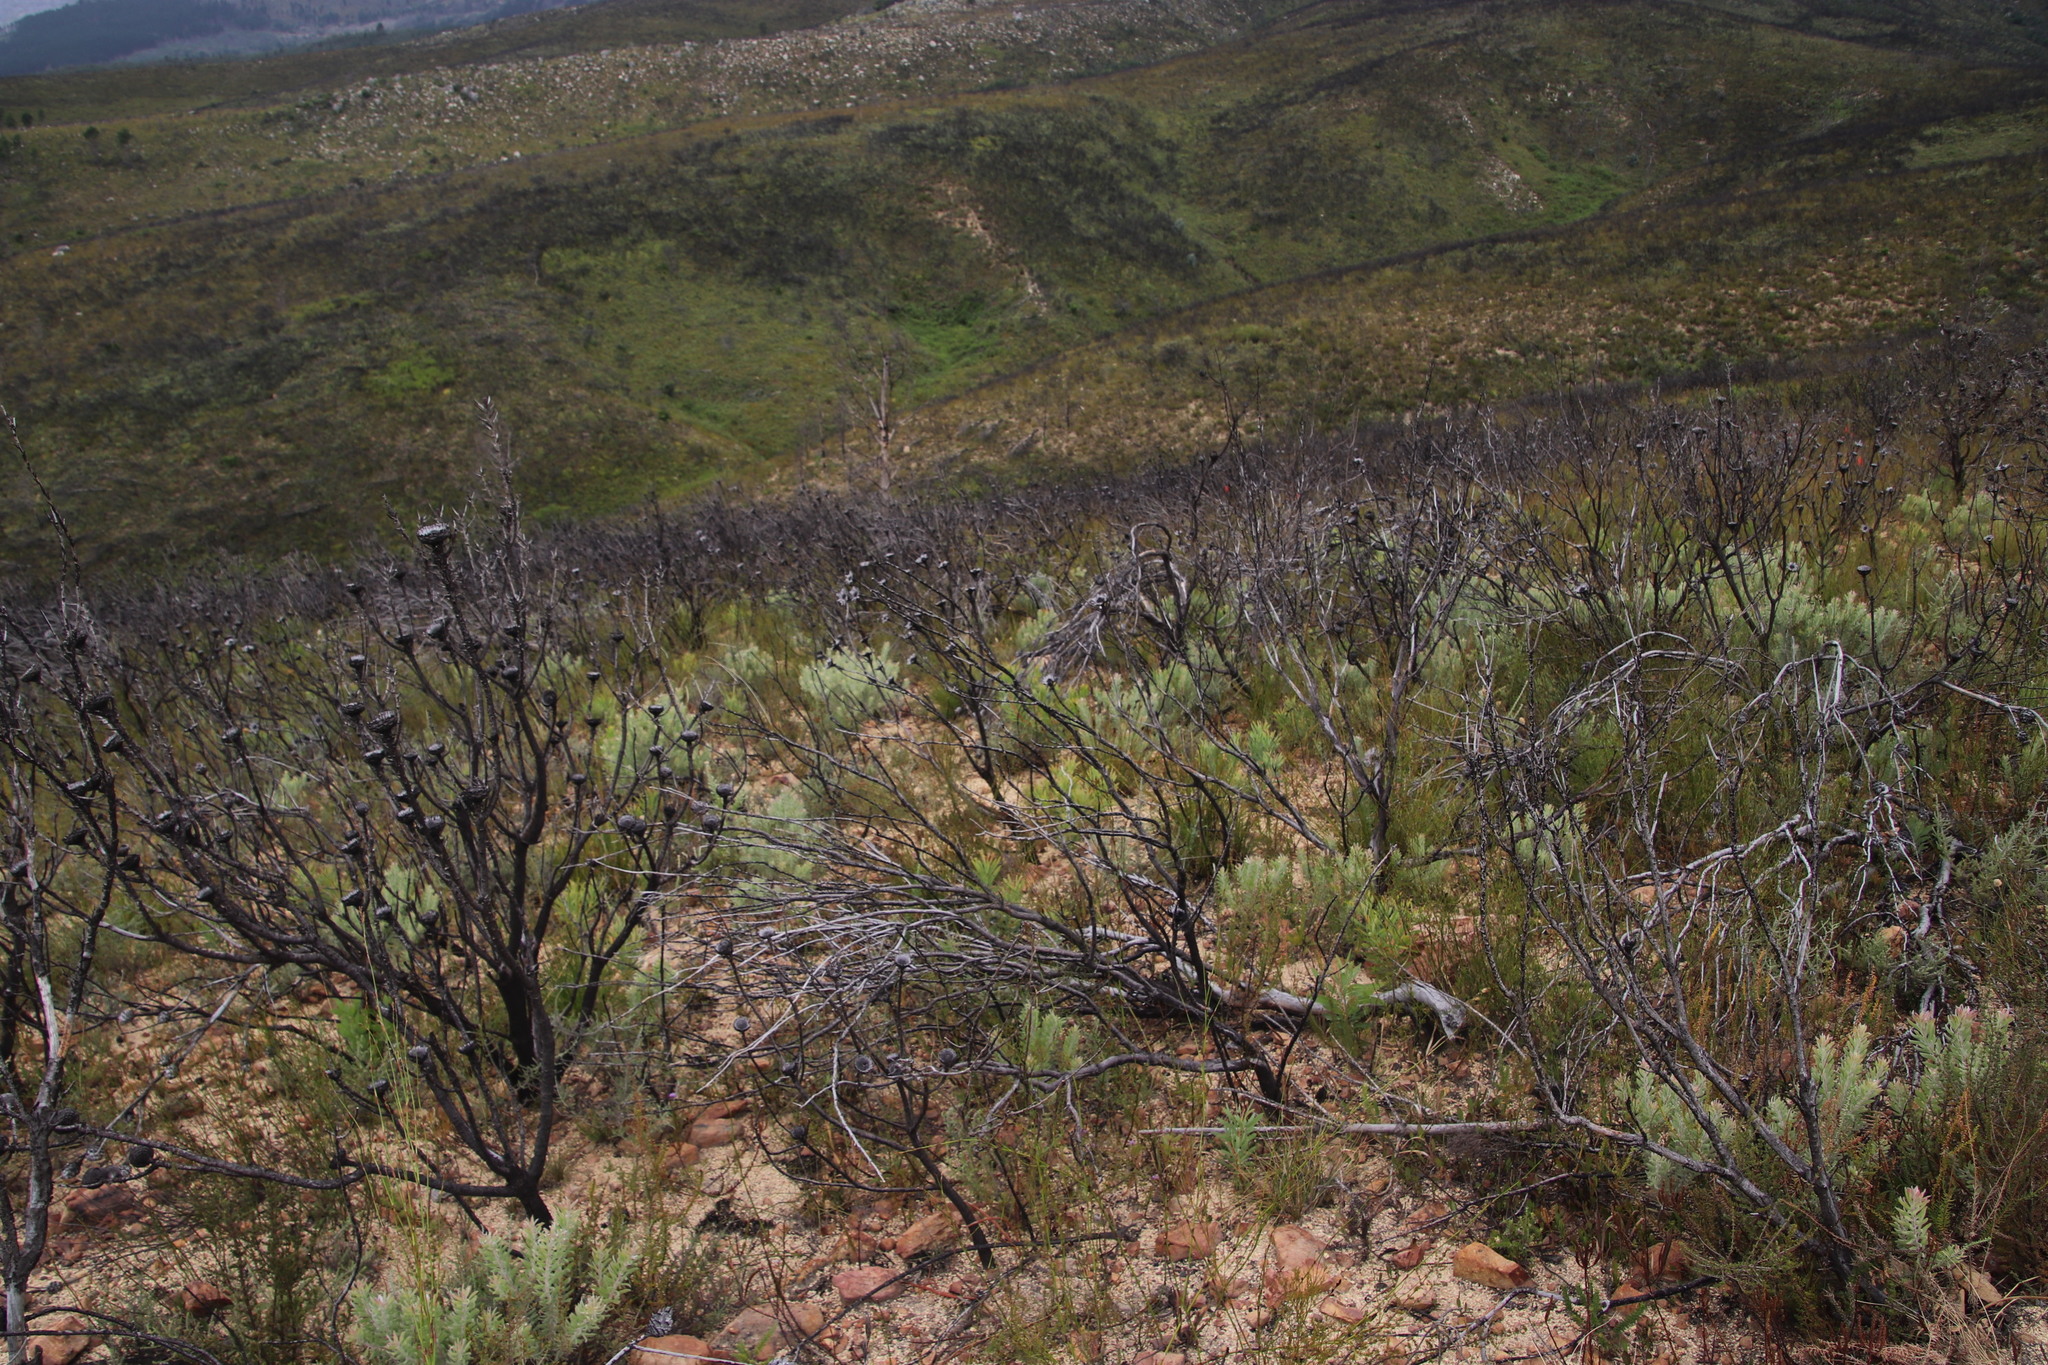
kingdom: Plantae
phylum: Tracheophyta
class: Magnoliopsida
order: Proteales
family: Proteaceae
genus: Leucadendron
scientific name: Leucadendron rubrum
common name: Spinning top
